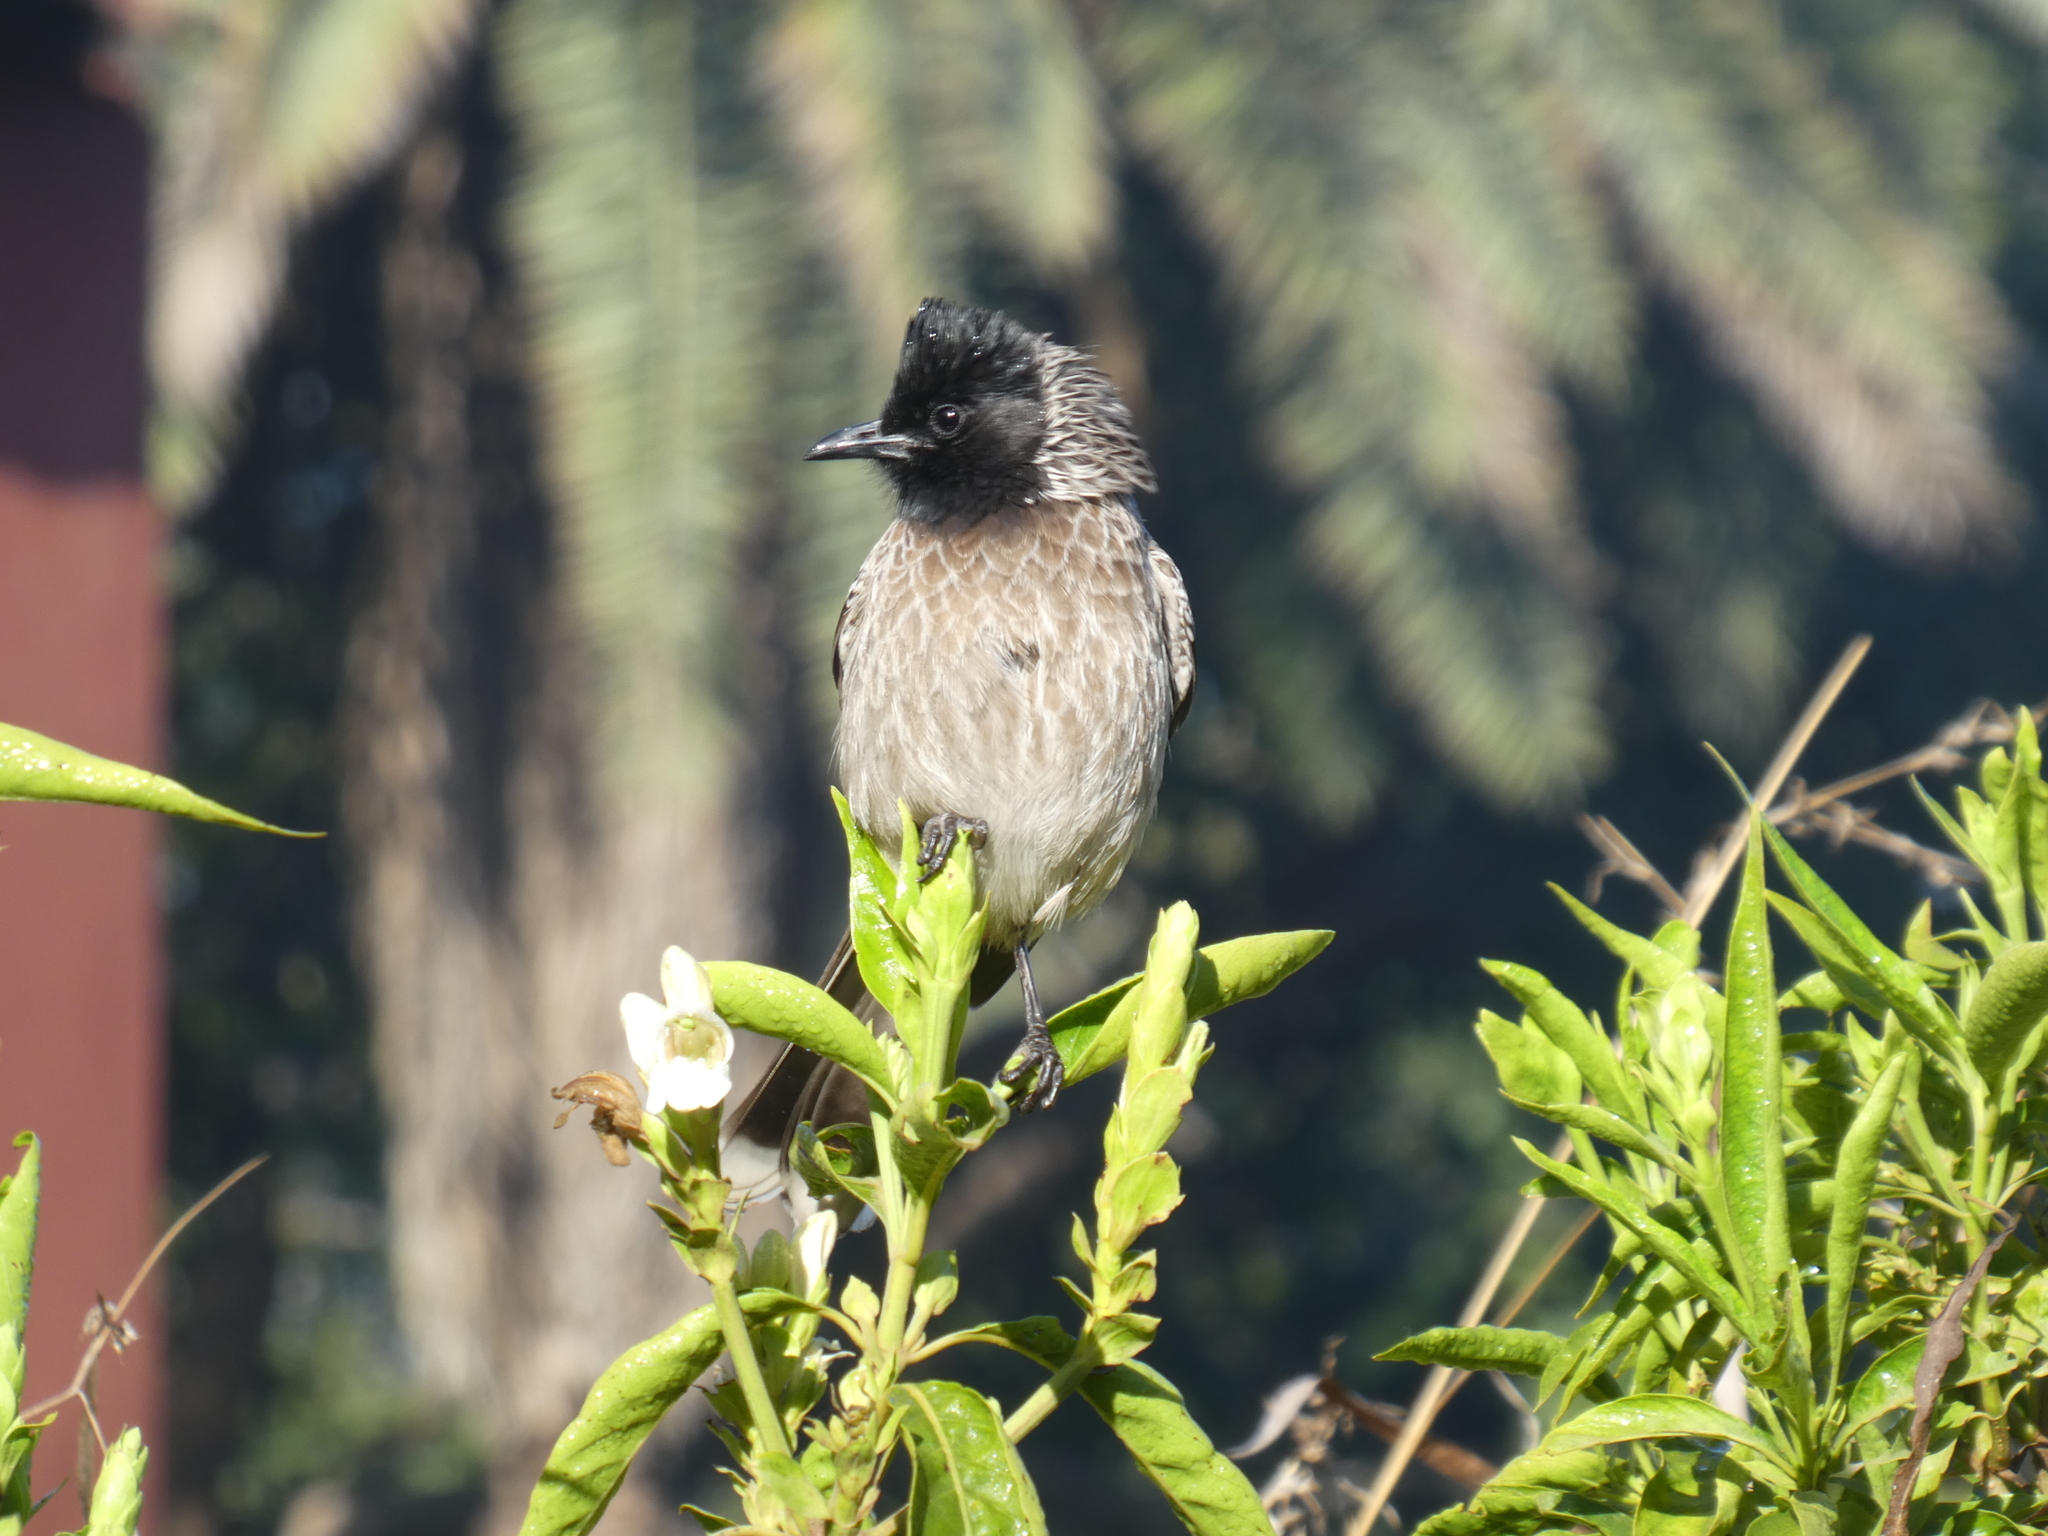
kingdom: Animalia
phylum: Chordata
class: Aves
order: Passeriformes
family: Pycnonotidae
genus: Pycnonotus
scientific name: Pycnonotus cafer
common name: Red-vented bulbul
